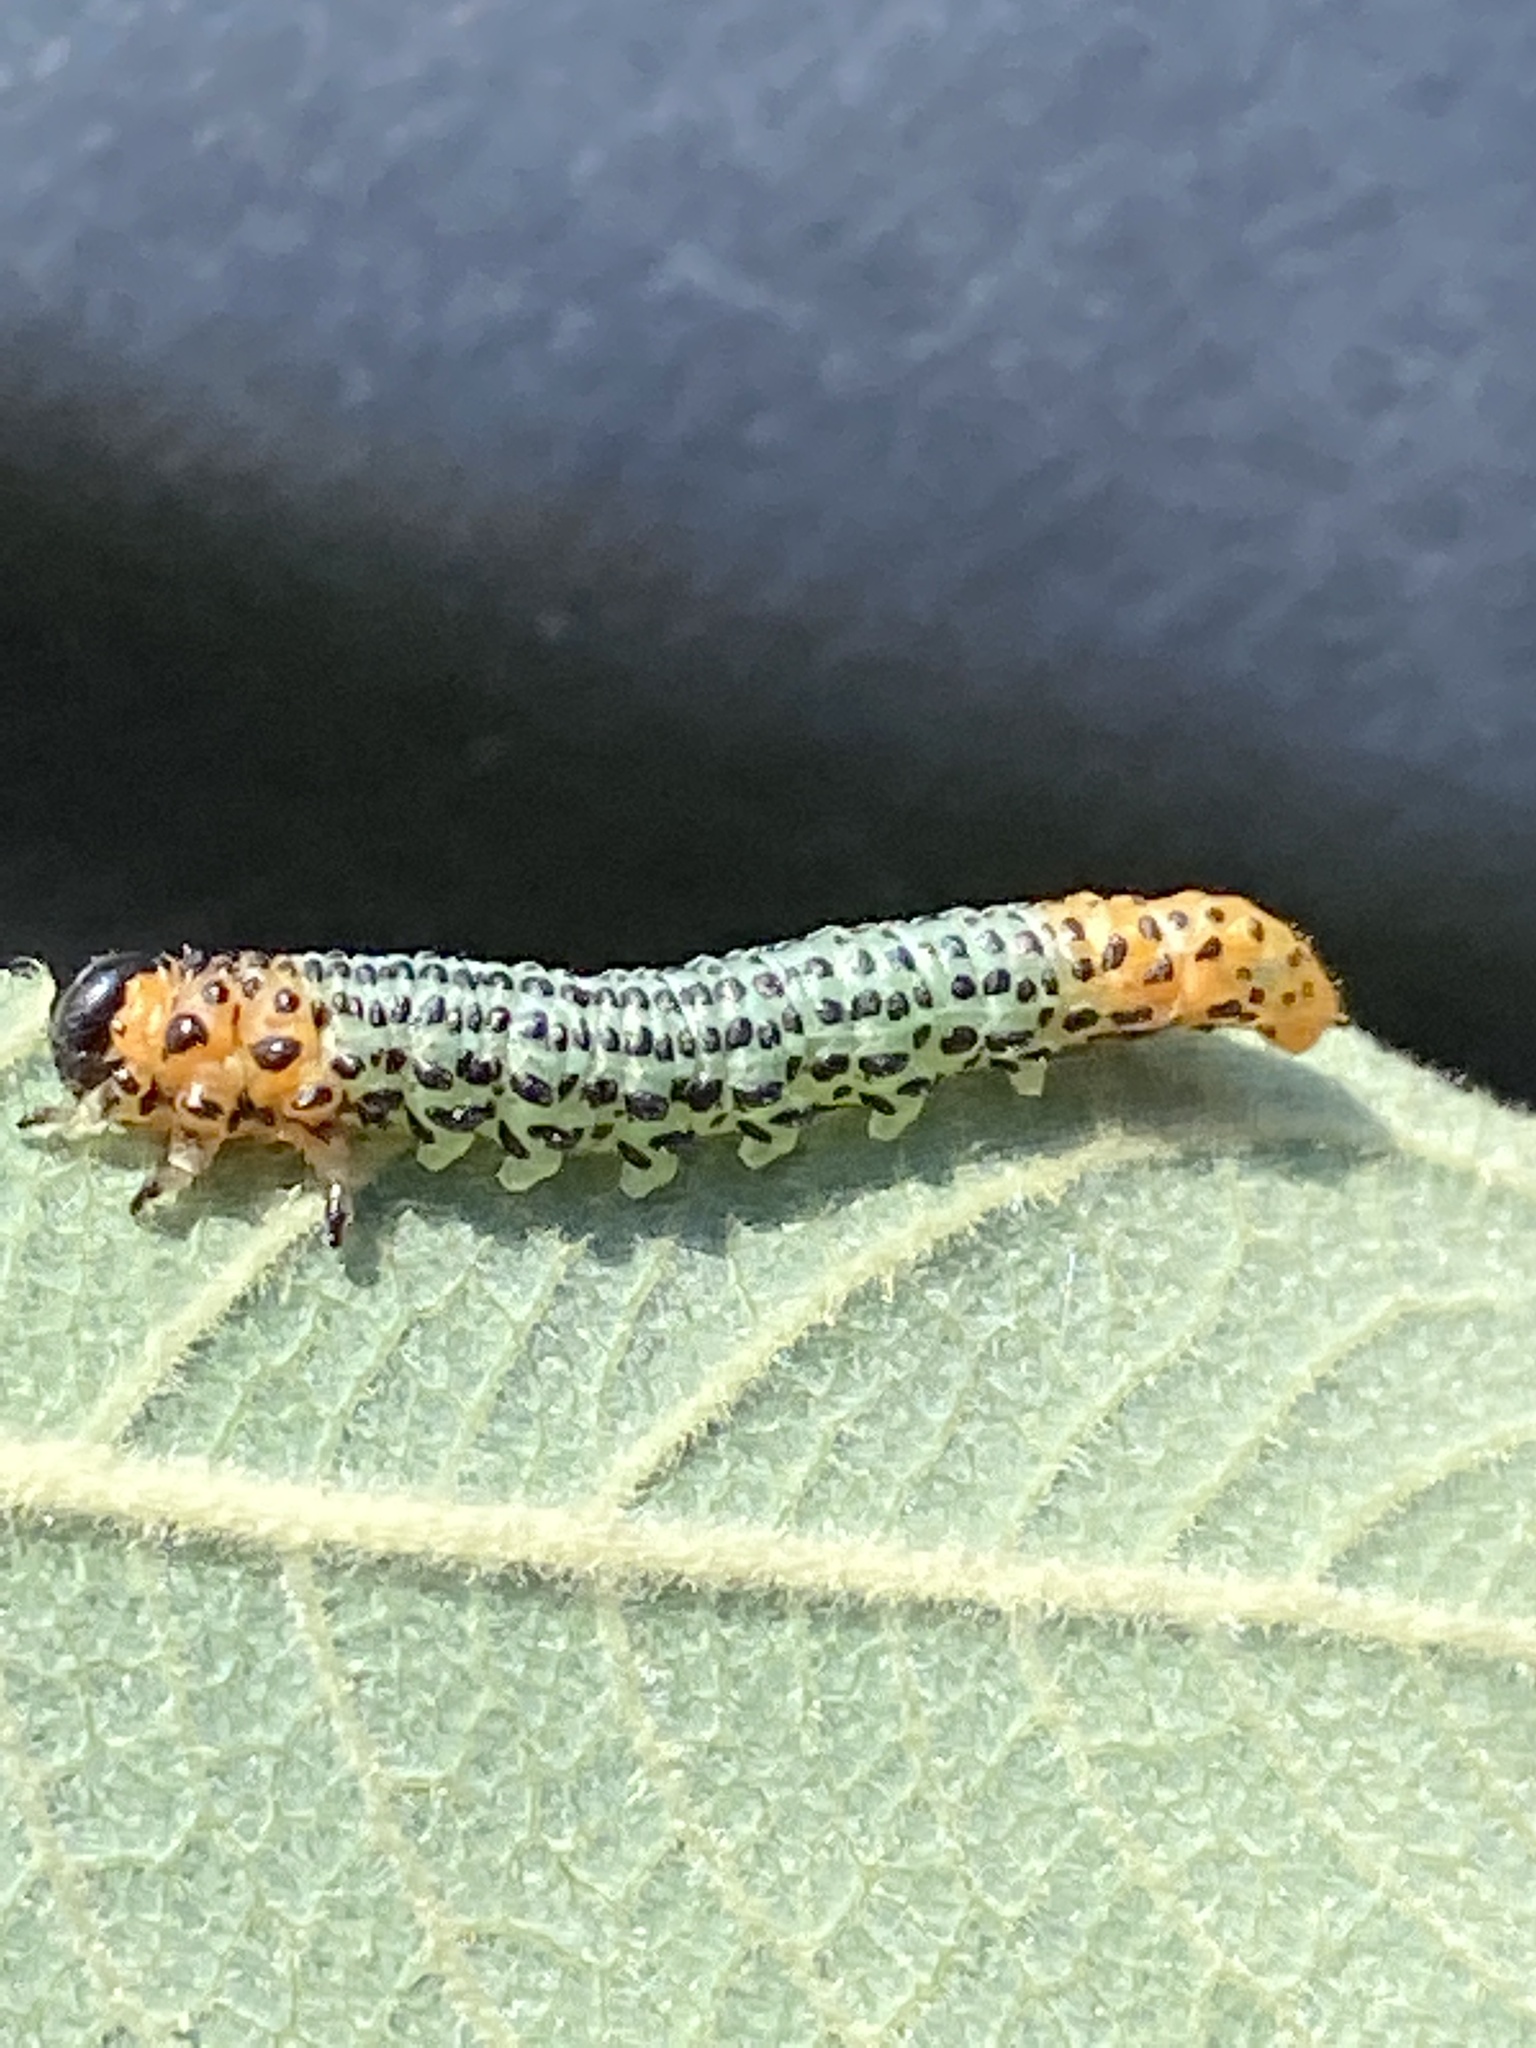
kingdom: Animalia
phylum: Arthropoda
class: Insecta
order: Hymenoptera
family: Tenthredinidae
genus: Nematus
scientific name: Nematus salicis
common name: Willow sawfly
